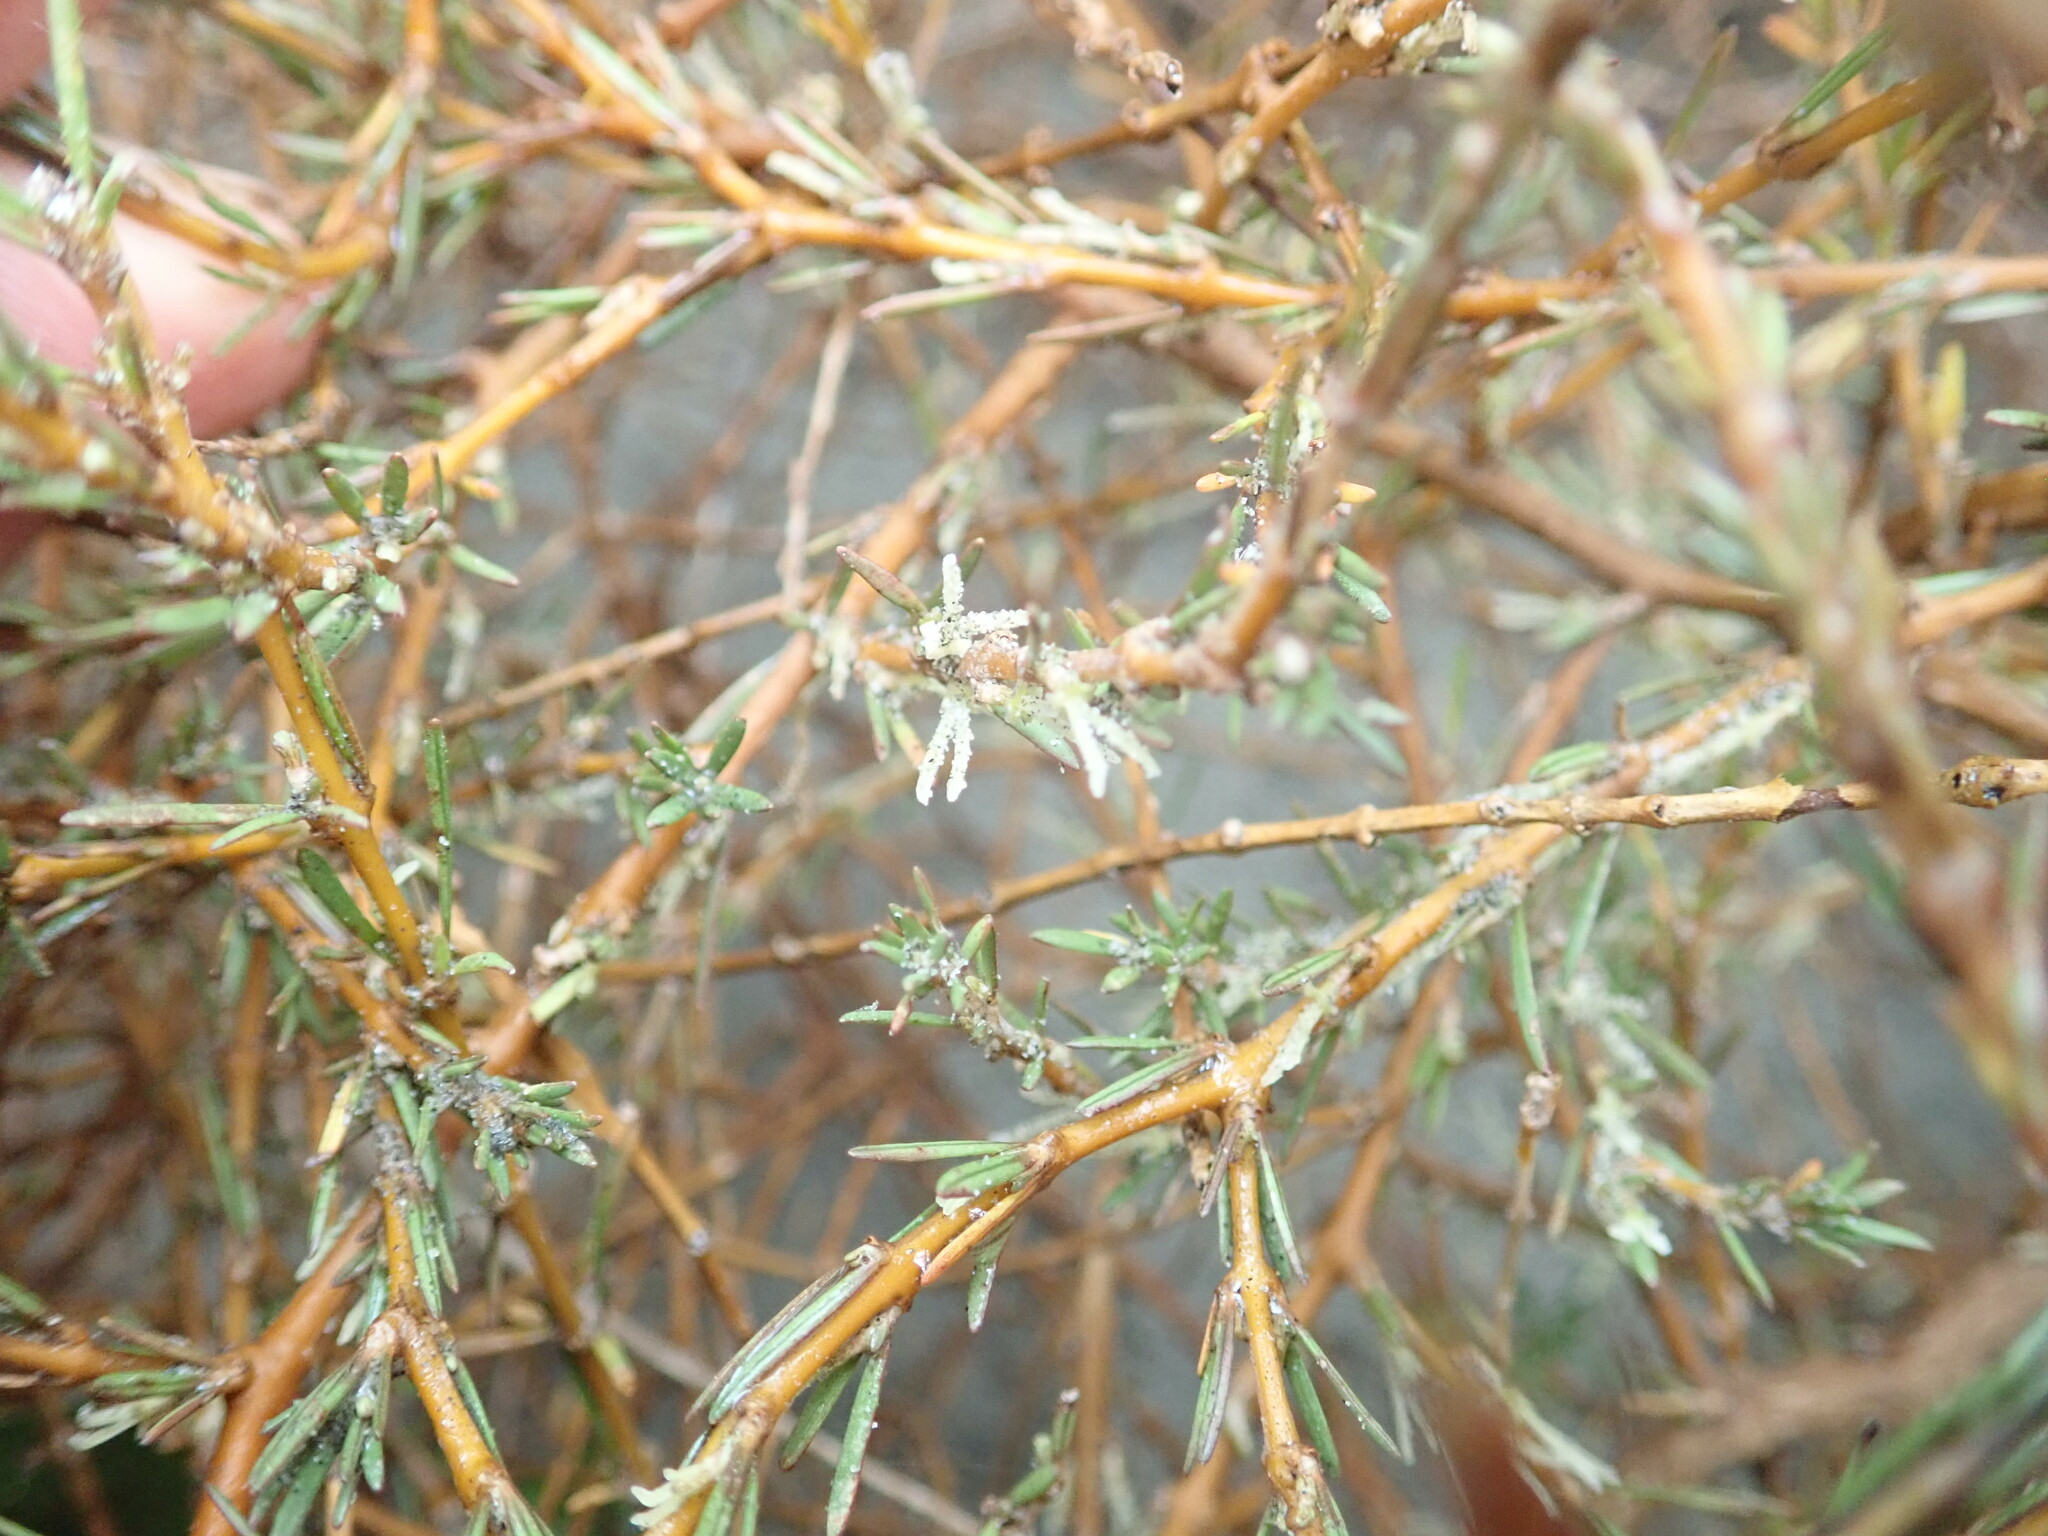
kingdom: Plantae
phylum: Tracheophyta
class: Magnoliopsida
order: Gentianales
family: Rubiaceae
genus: Coprosma
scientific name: Coprosma acerosa
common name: Sand coprosma
